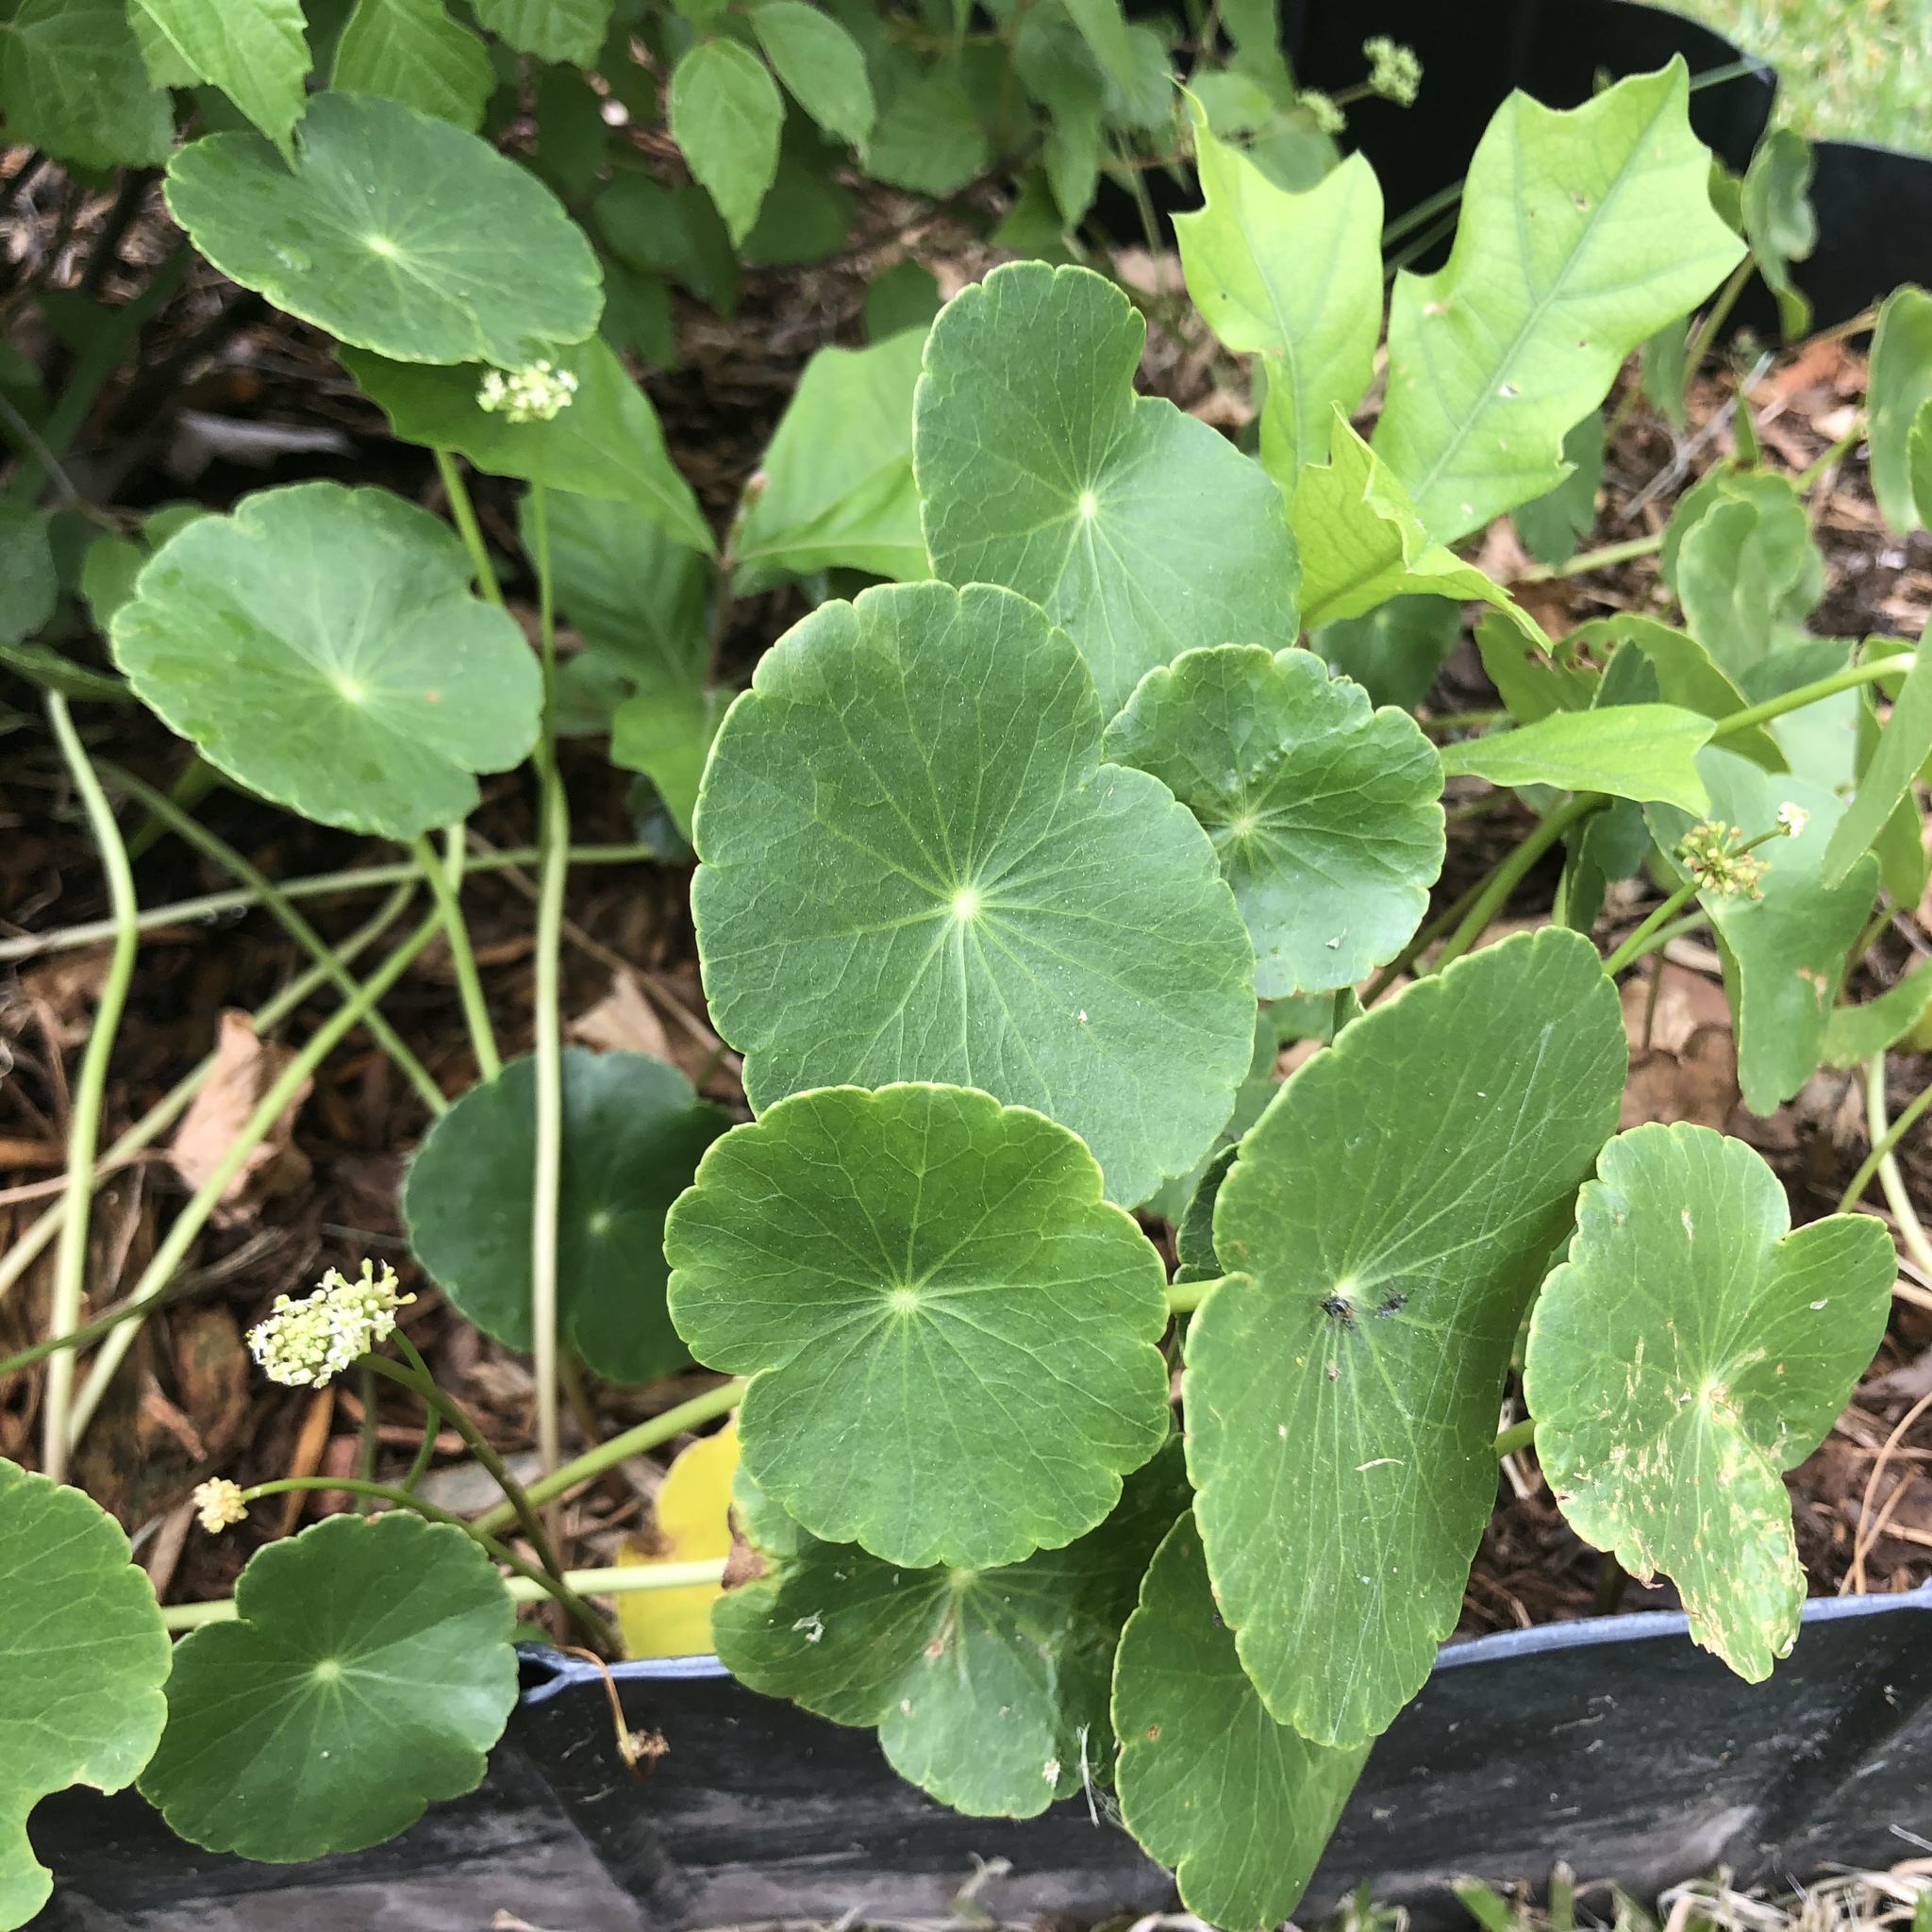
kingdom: Plantae
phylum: Tracheophyta
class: Magnoliopsida
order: Apiales
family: Araliaceae
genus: Hydrocotyle
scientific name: Hydrocotyle bonariensis
